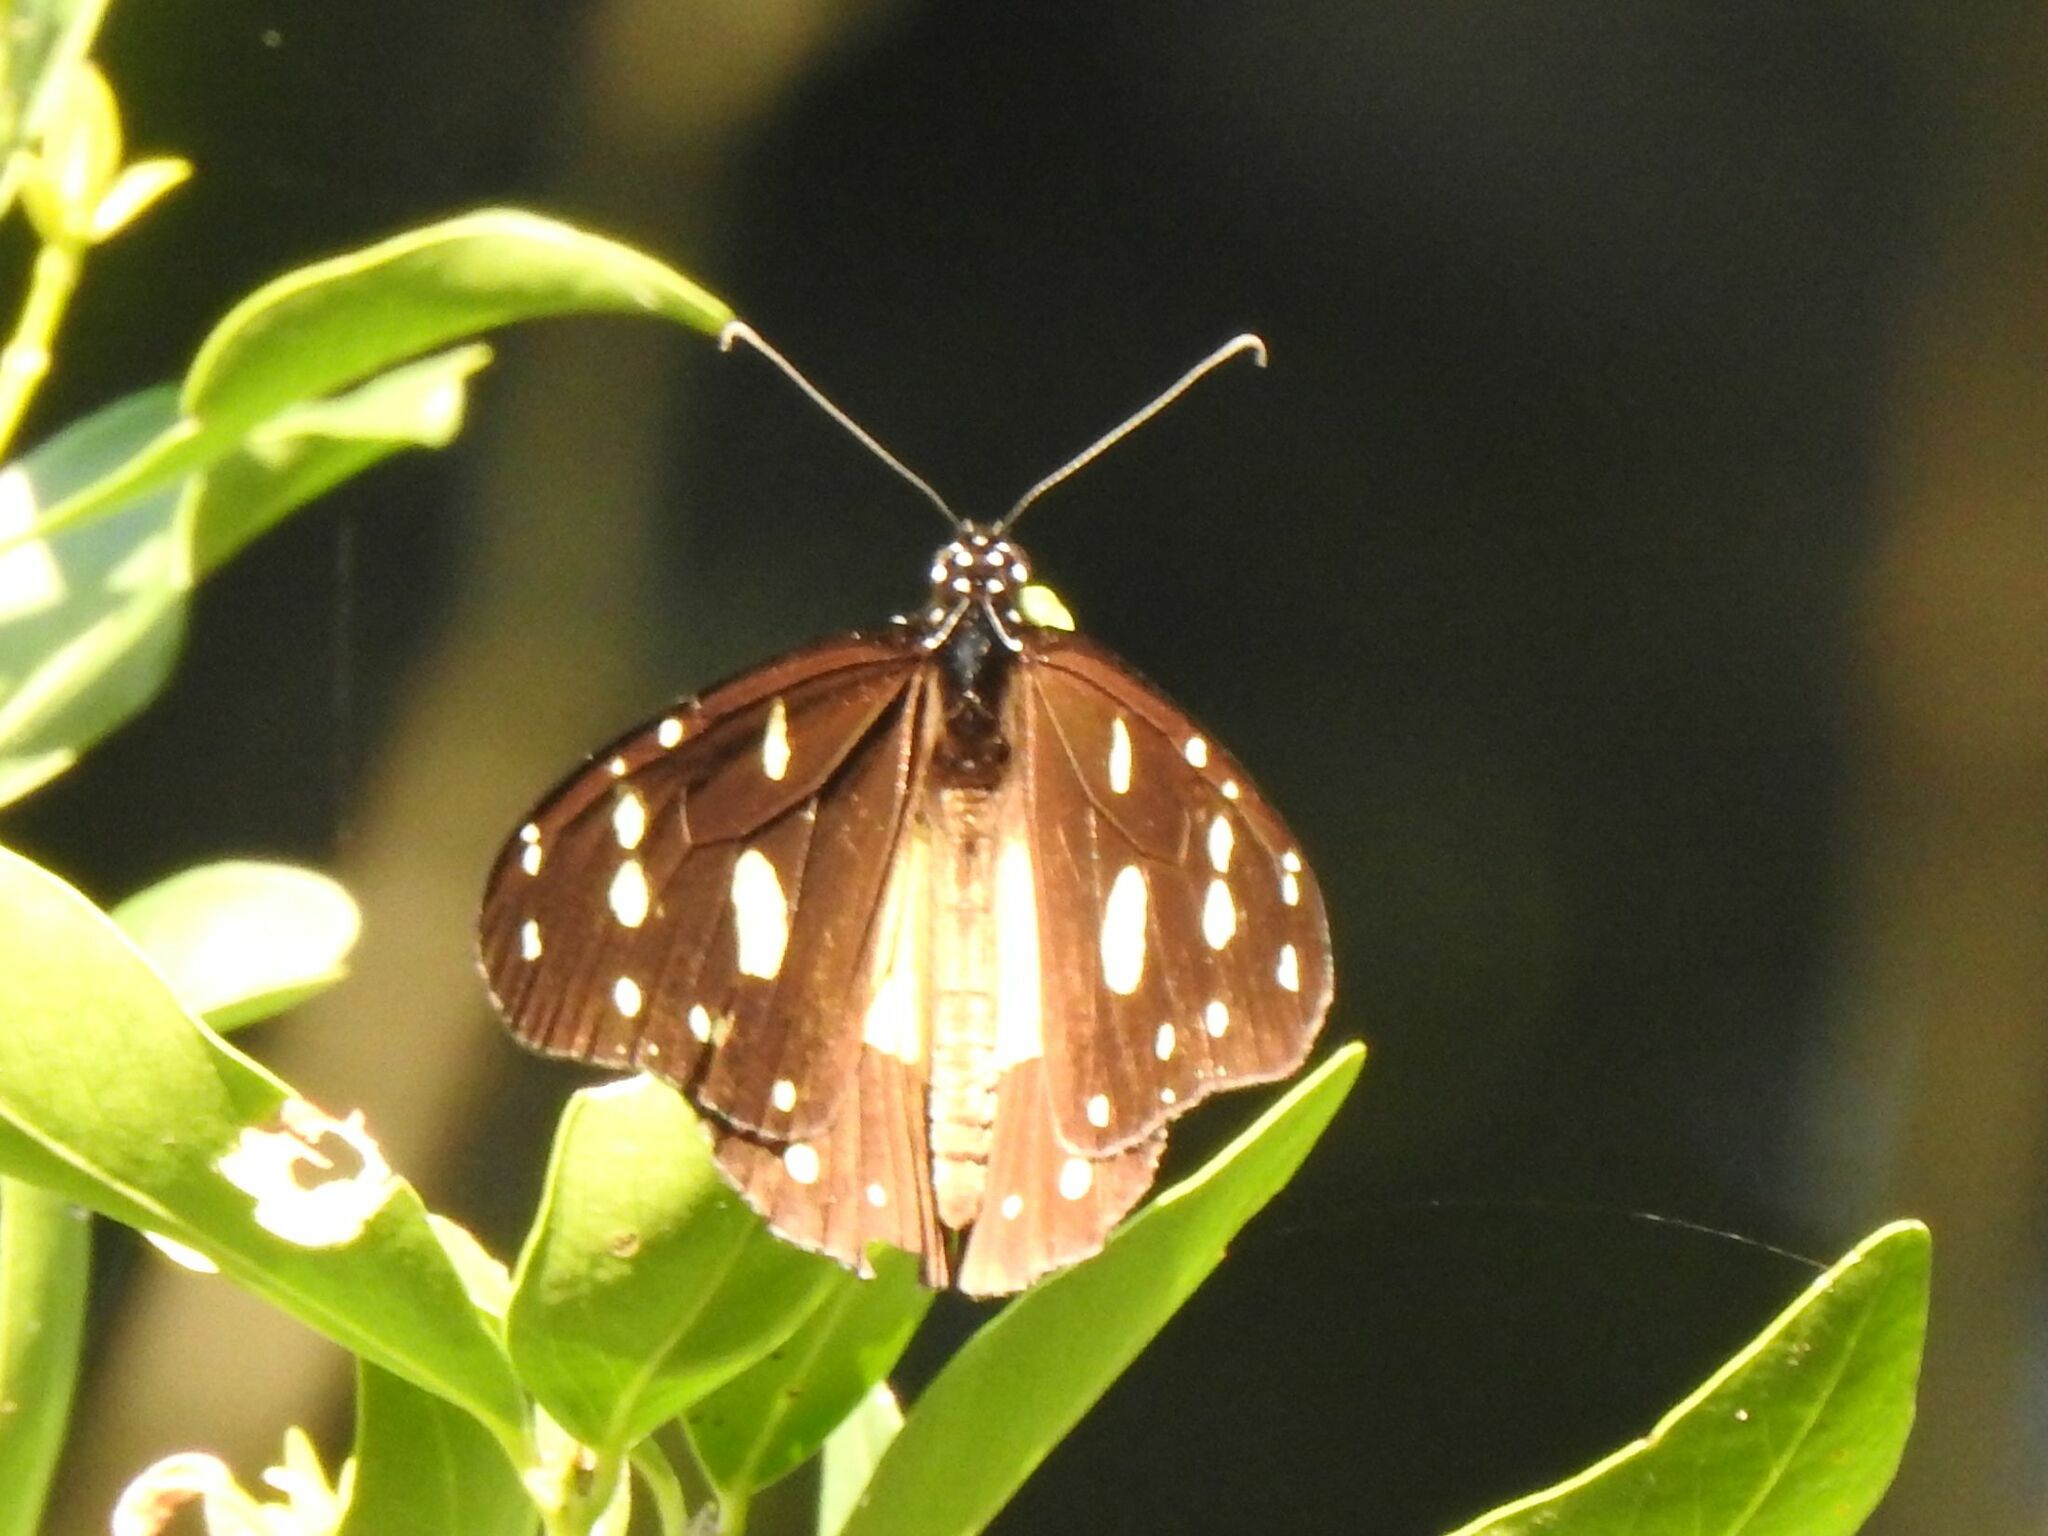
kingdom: Animalia
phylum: Arthropoda
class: Insecta
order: Lepidoptera
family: Nymphalidae
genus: Amauris
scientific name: Amauris echeria
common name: Chief
